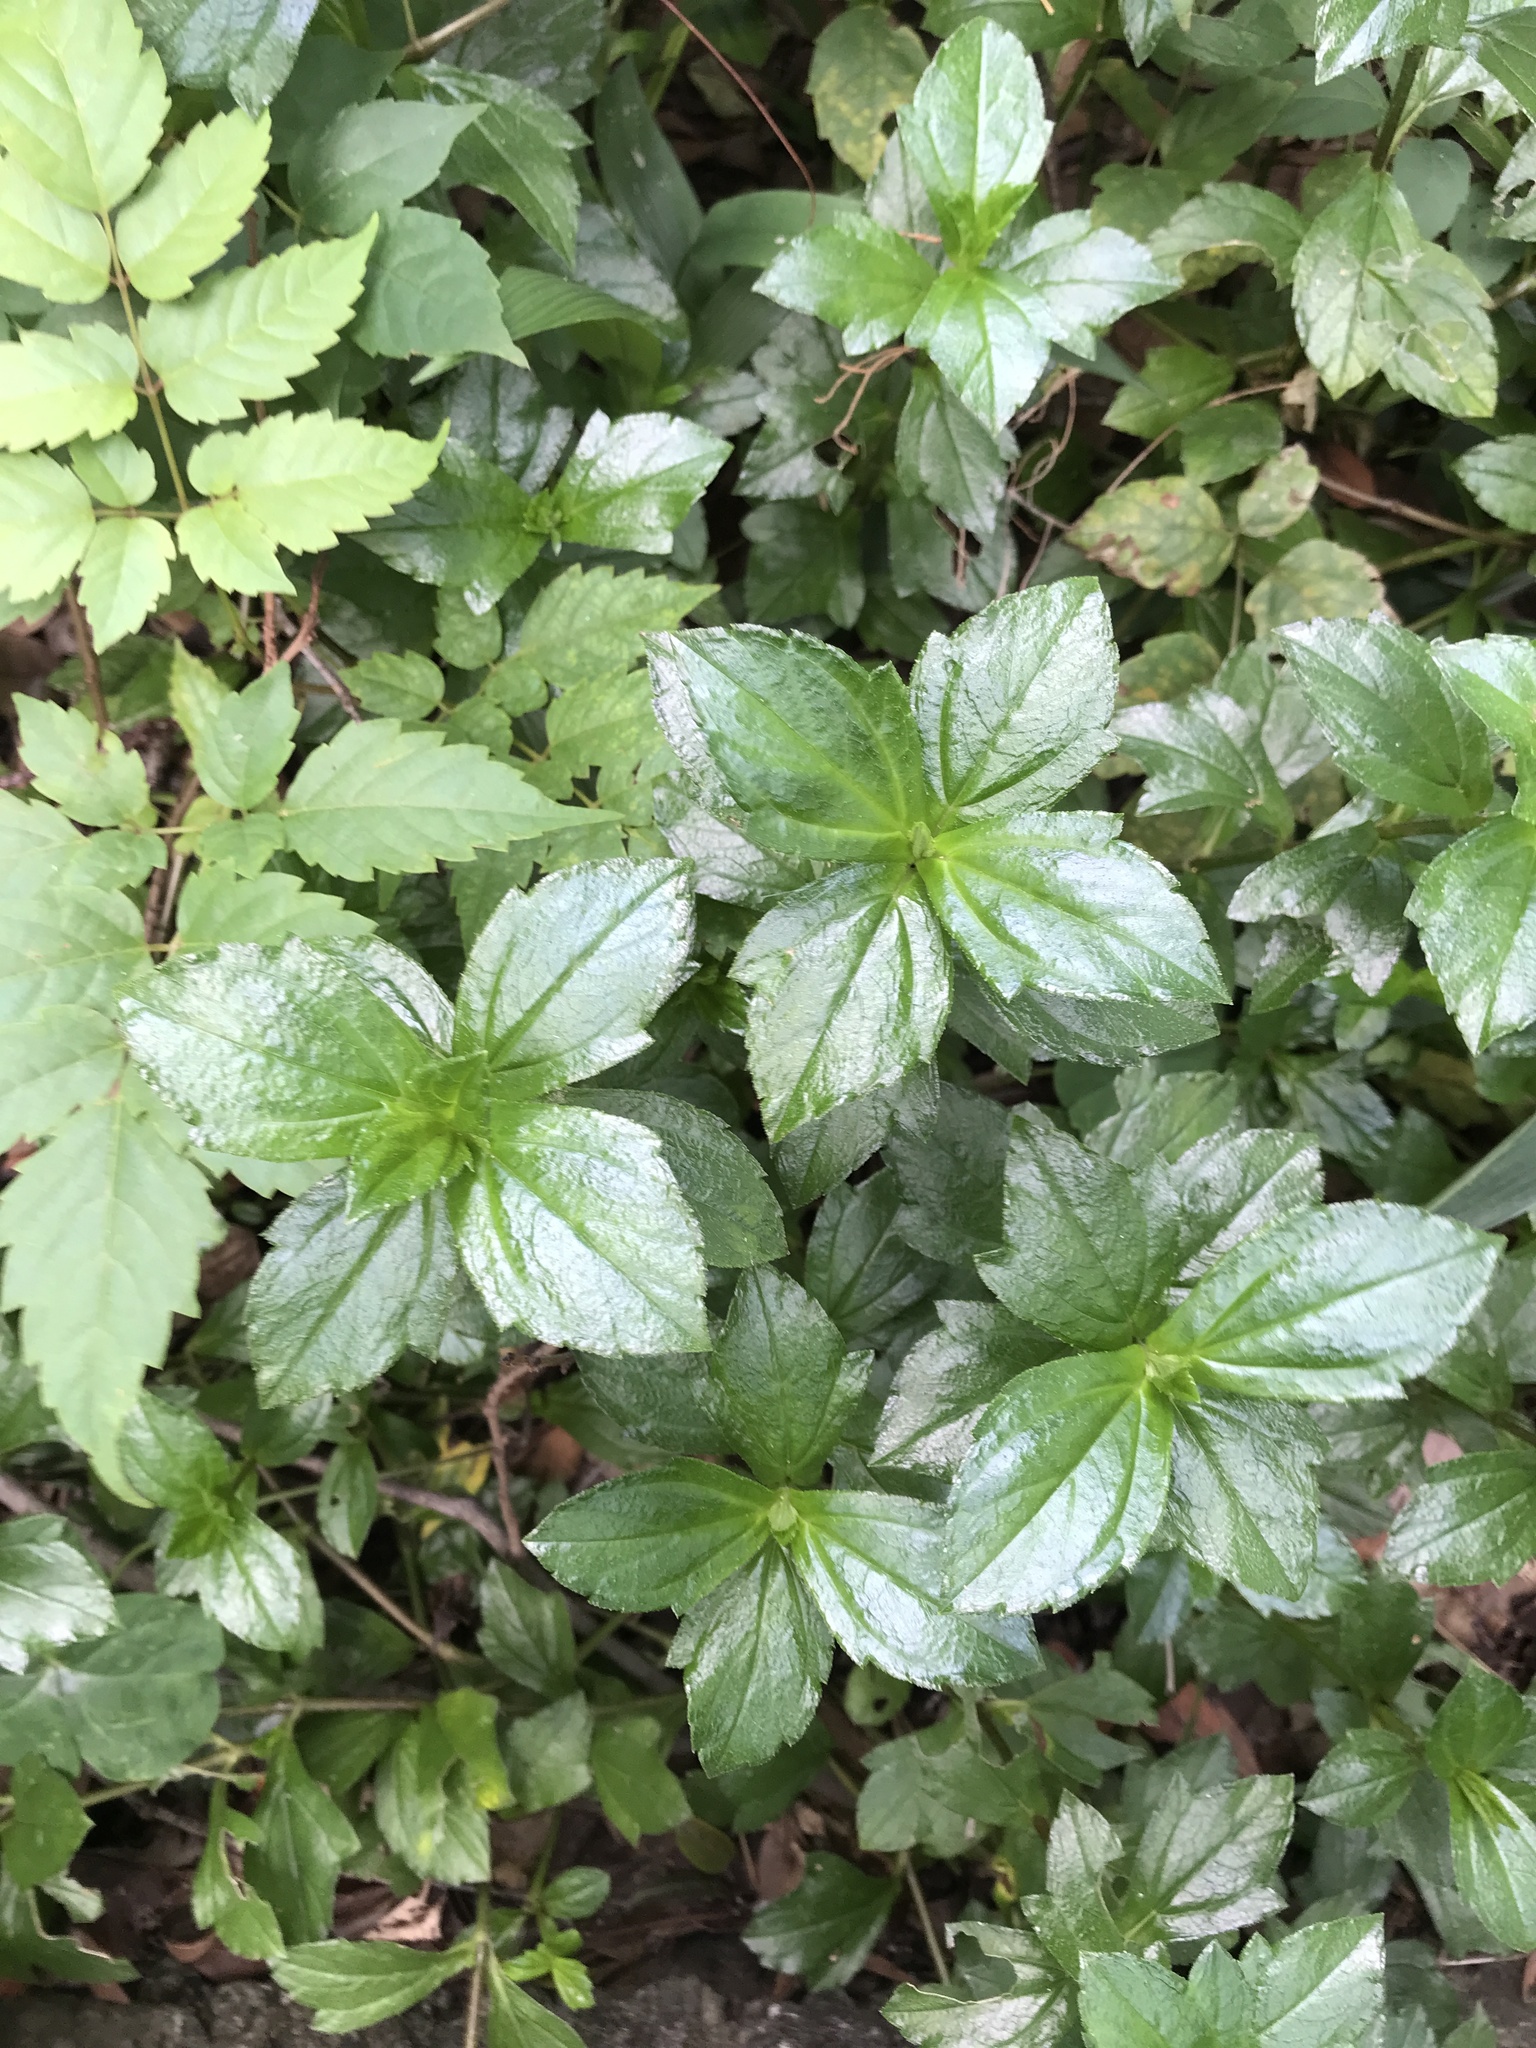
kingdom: Plantae
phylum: Tracheophyta
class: Magnoliopsida
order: Asterales
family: Asteraceae
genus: Sphagneticola
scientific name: Sphagneticola trilobata
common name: Bay biscayne creeping-oxeye
